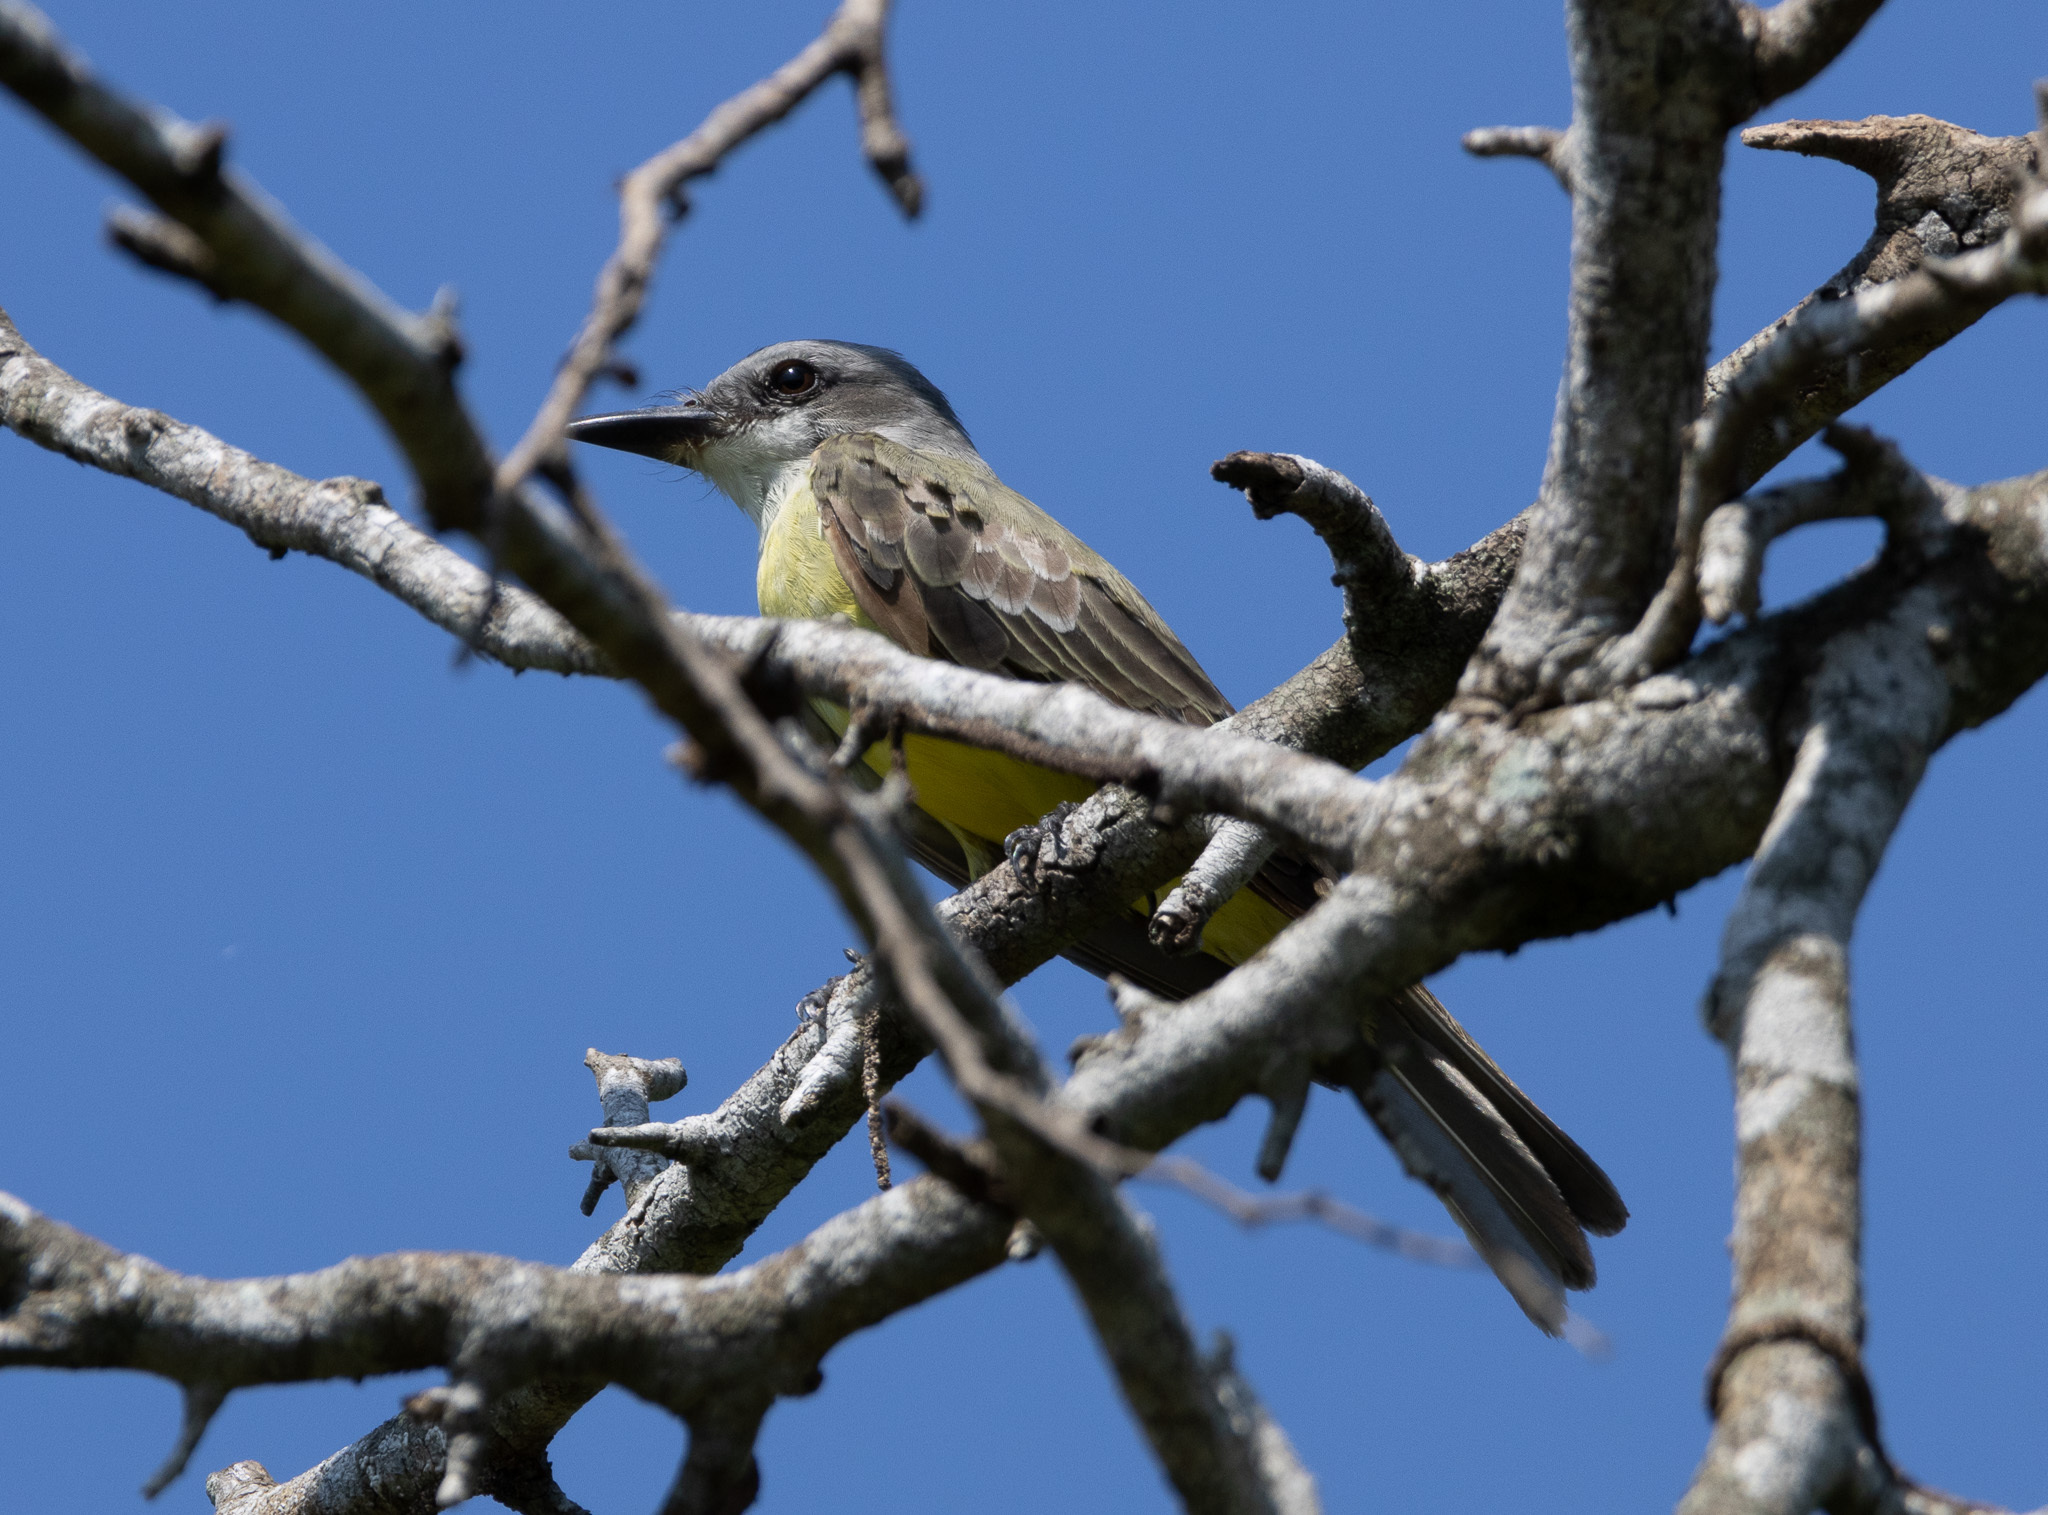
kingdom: Animalia
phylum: Chordata
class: Aves
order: Passeriformes
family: Tyrannidae
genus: Tyrannus
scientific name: Tyrannus melancholicus
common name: Tropical kingbird
